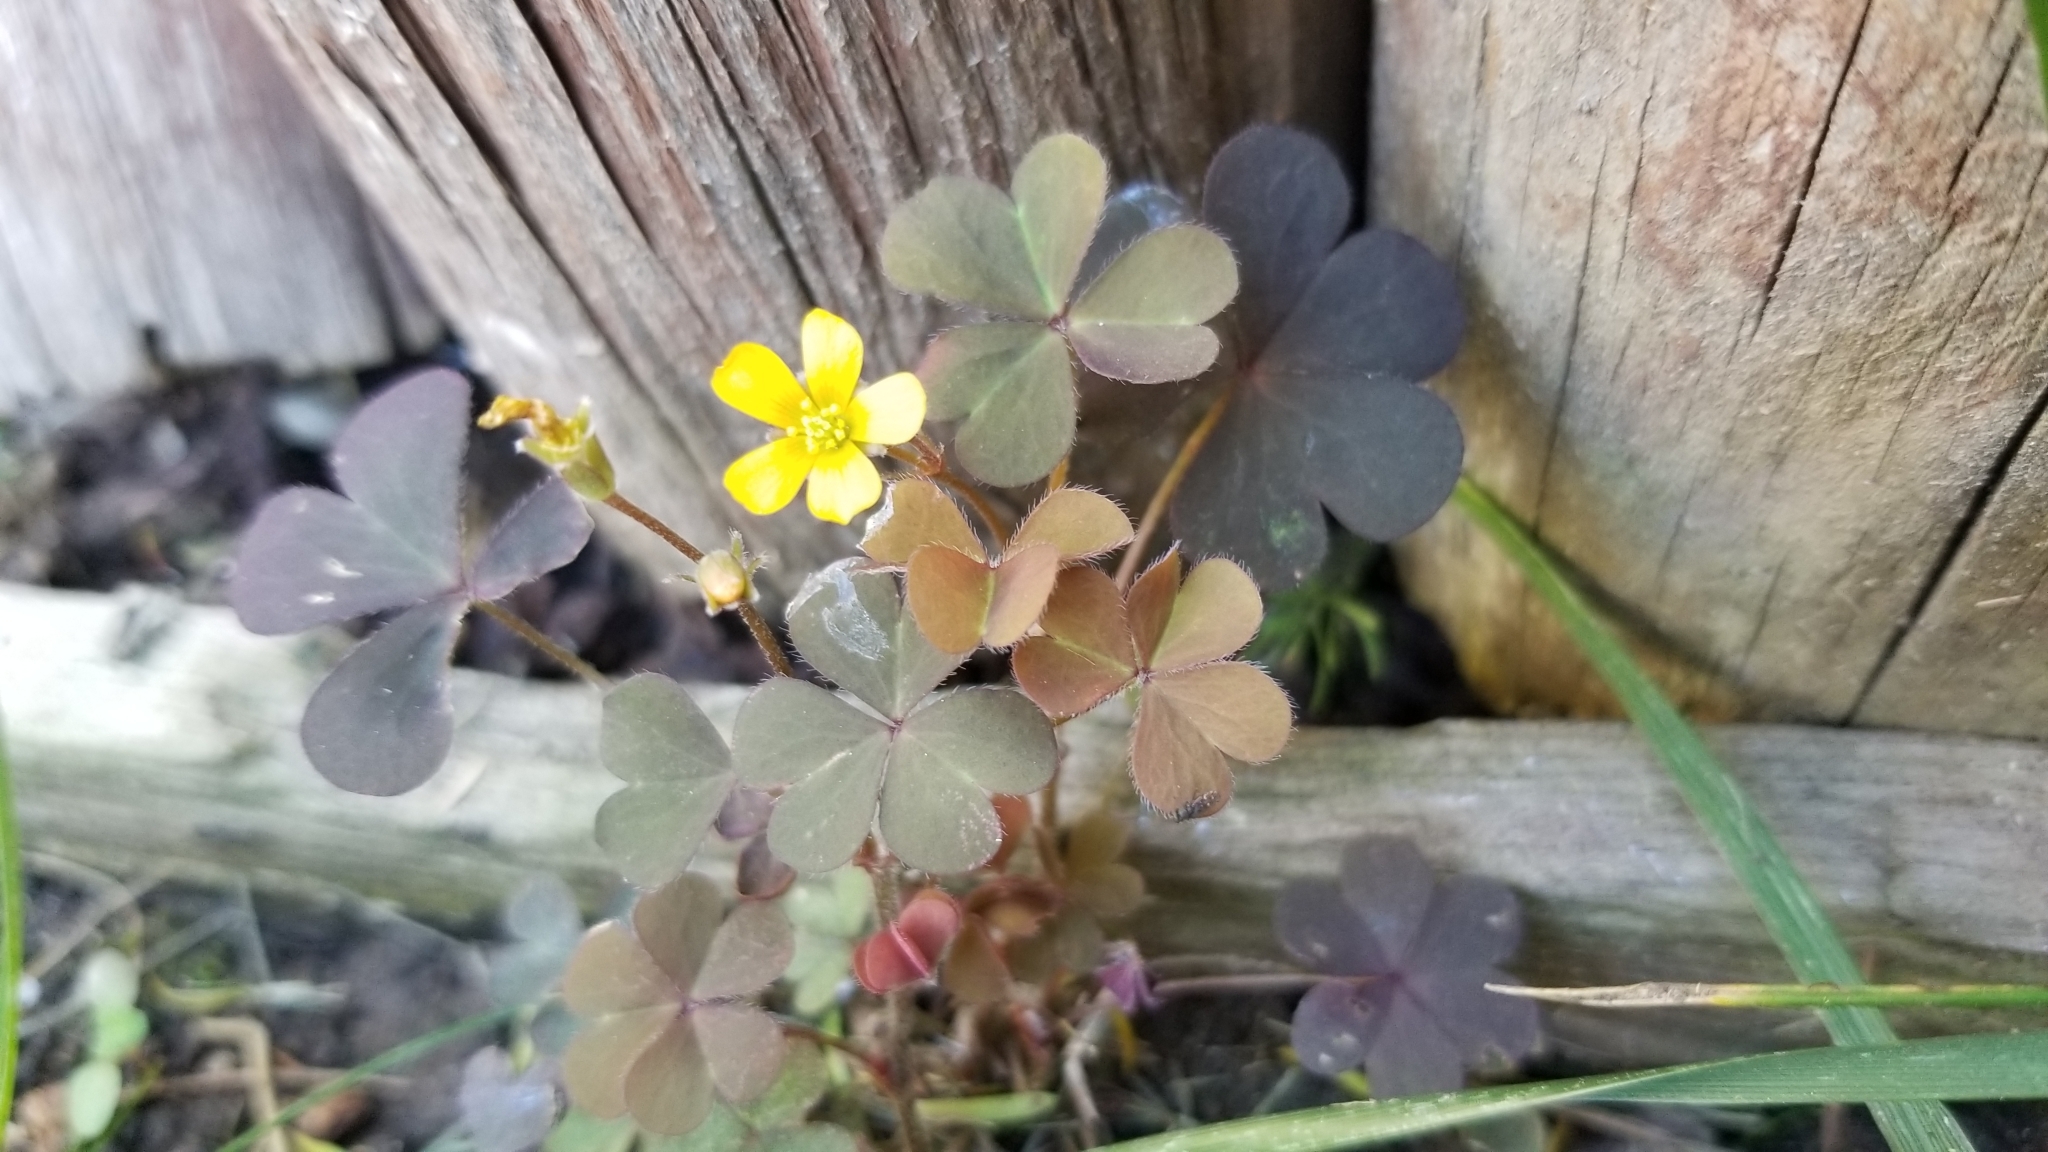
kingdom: Plantae
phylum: Tracheophyta
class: Magnoliopsida
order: Oxalidales
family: Oxalidaceae
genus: Oxalis
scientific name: Oxalis corniculata
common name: Procumbent yellow-sorrel
